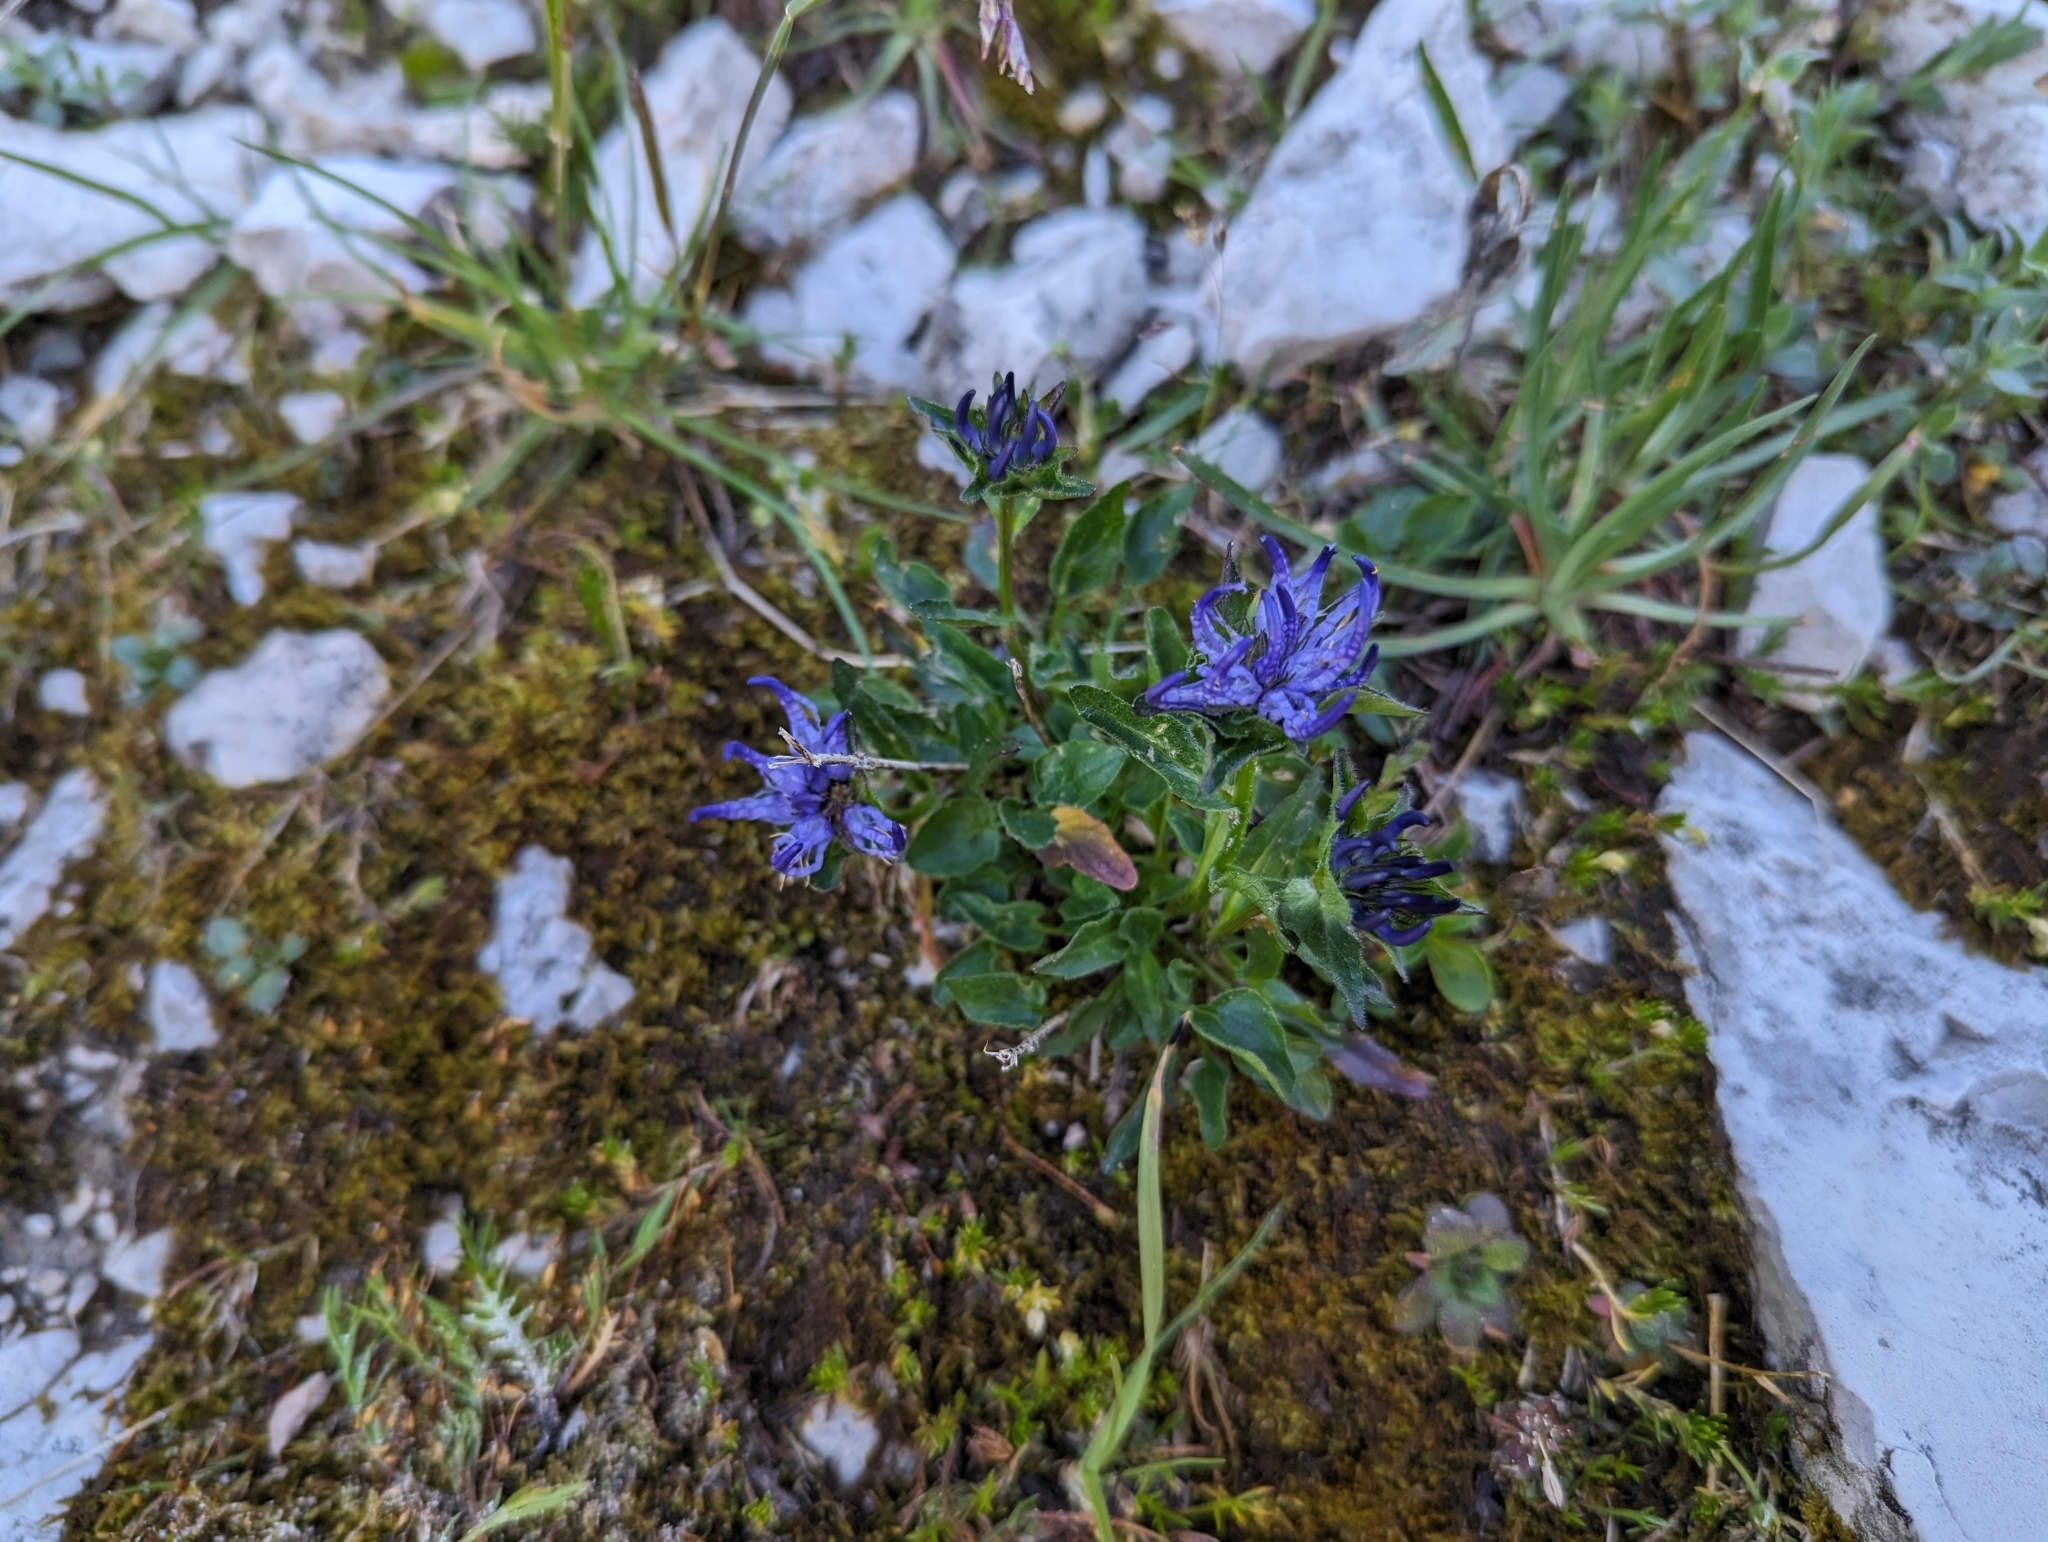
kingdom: Plantae
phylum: Tracheophyta
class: Magnoliopsida
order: Asterales
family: Campanulaceae
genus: Phyteuma
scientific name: Phyteuma sieberi
